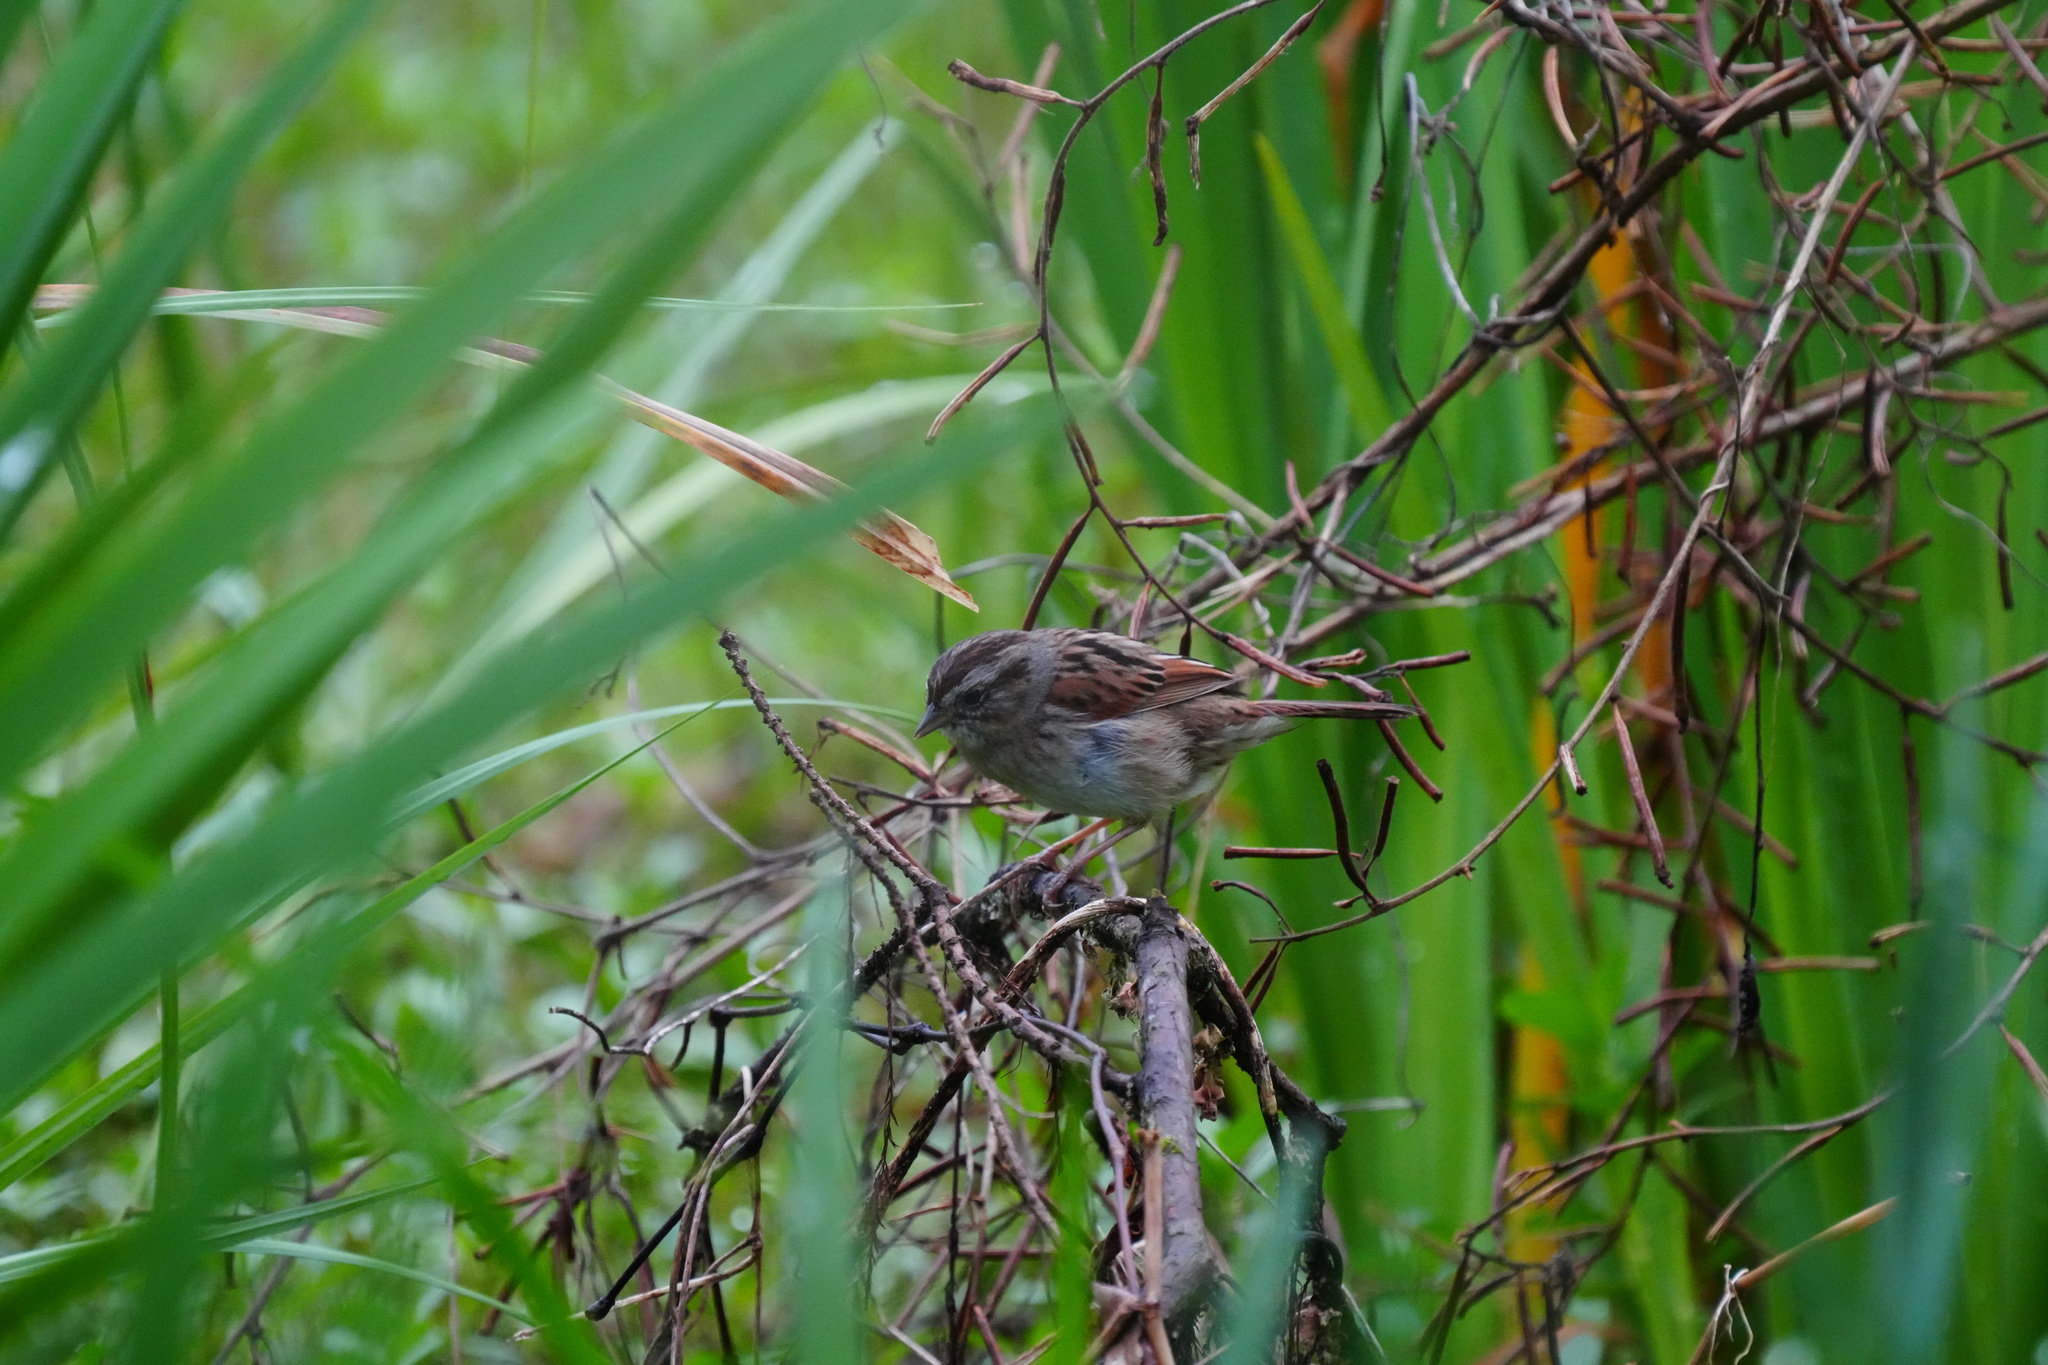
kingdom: Animalia
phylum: Chordata
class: Aves
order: Passeriformes
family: Passerellidae
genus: Melospiza
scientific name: Melospiza georgiana
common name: Swamp sparrow
